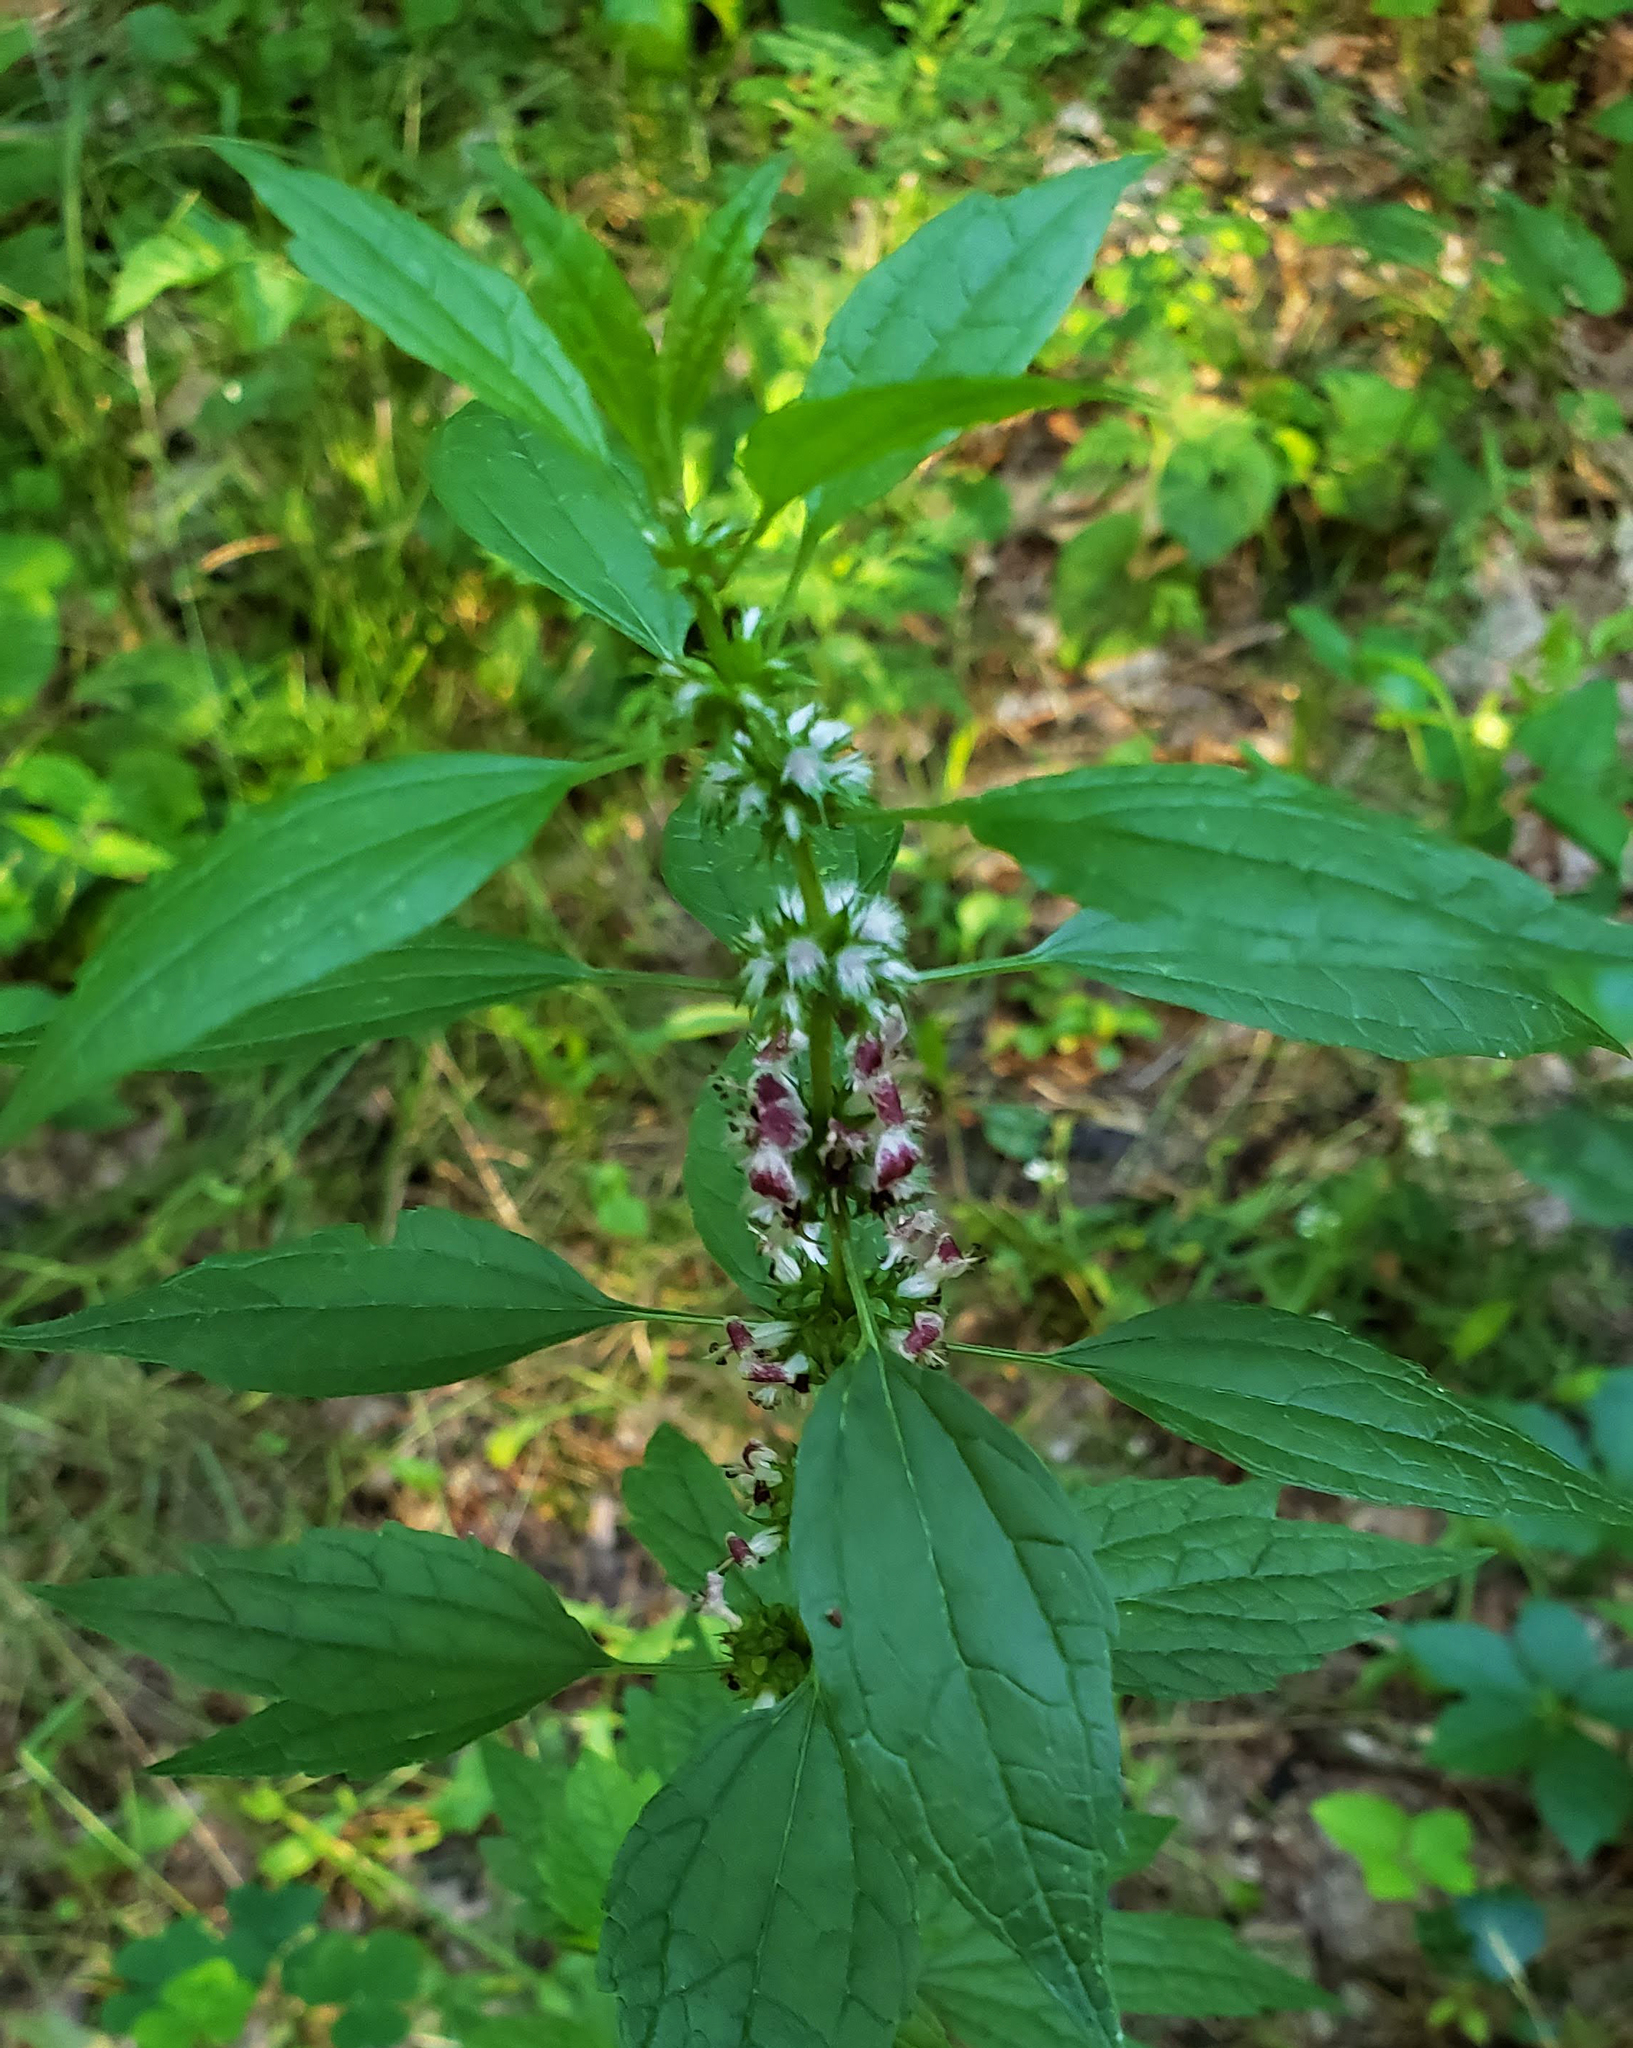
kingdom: Plantae
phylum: Tracheophyta
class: Magnoliopsida
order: Lamiales
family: Lamiaceae
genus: Leonurus
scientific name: Leonurus cardiaca
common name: Motherwort
